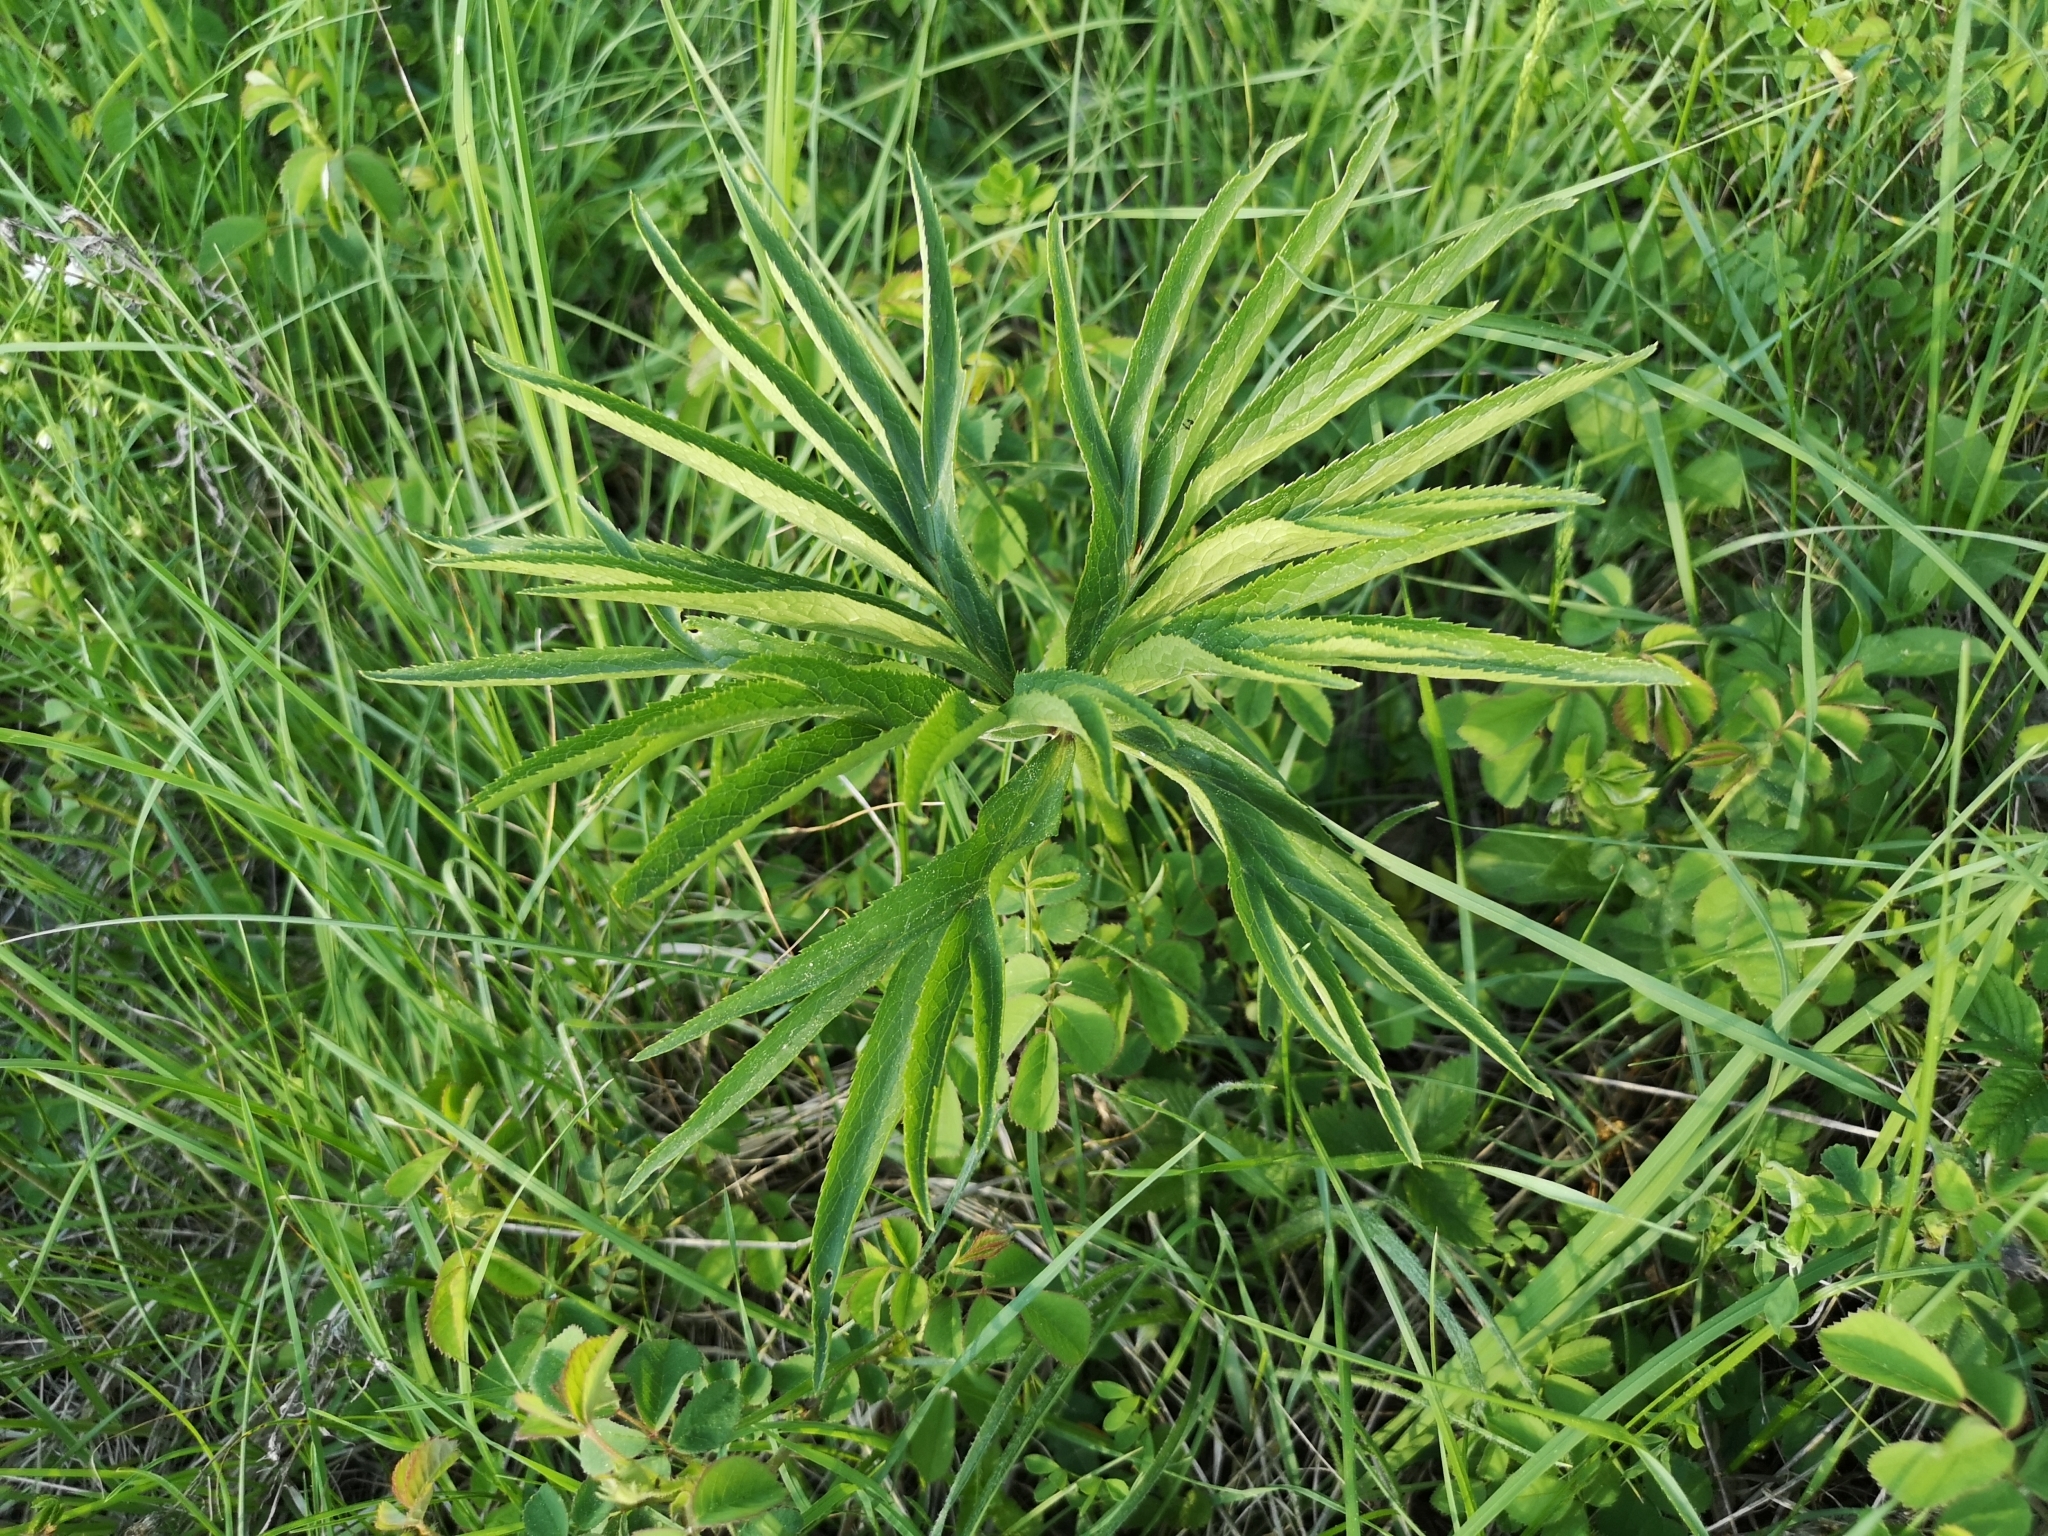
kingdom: Plantae
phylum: Tracheophyta
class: Magnoliopsida
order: Ranunculales
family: Ranunculaceae
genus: Helleborus
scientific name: Helleborus multifidus
